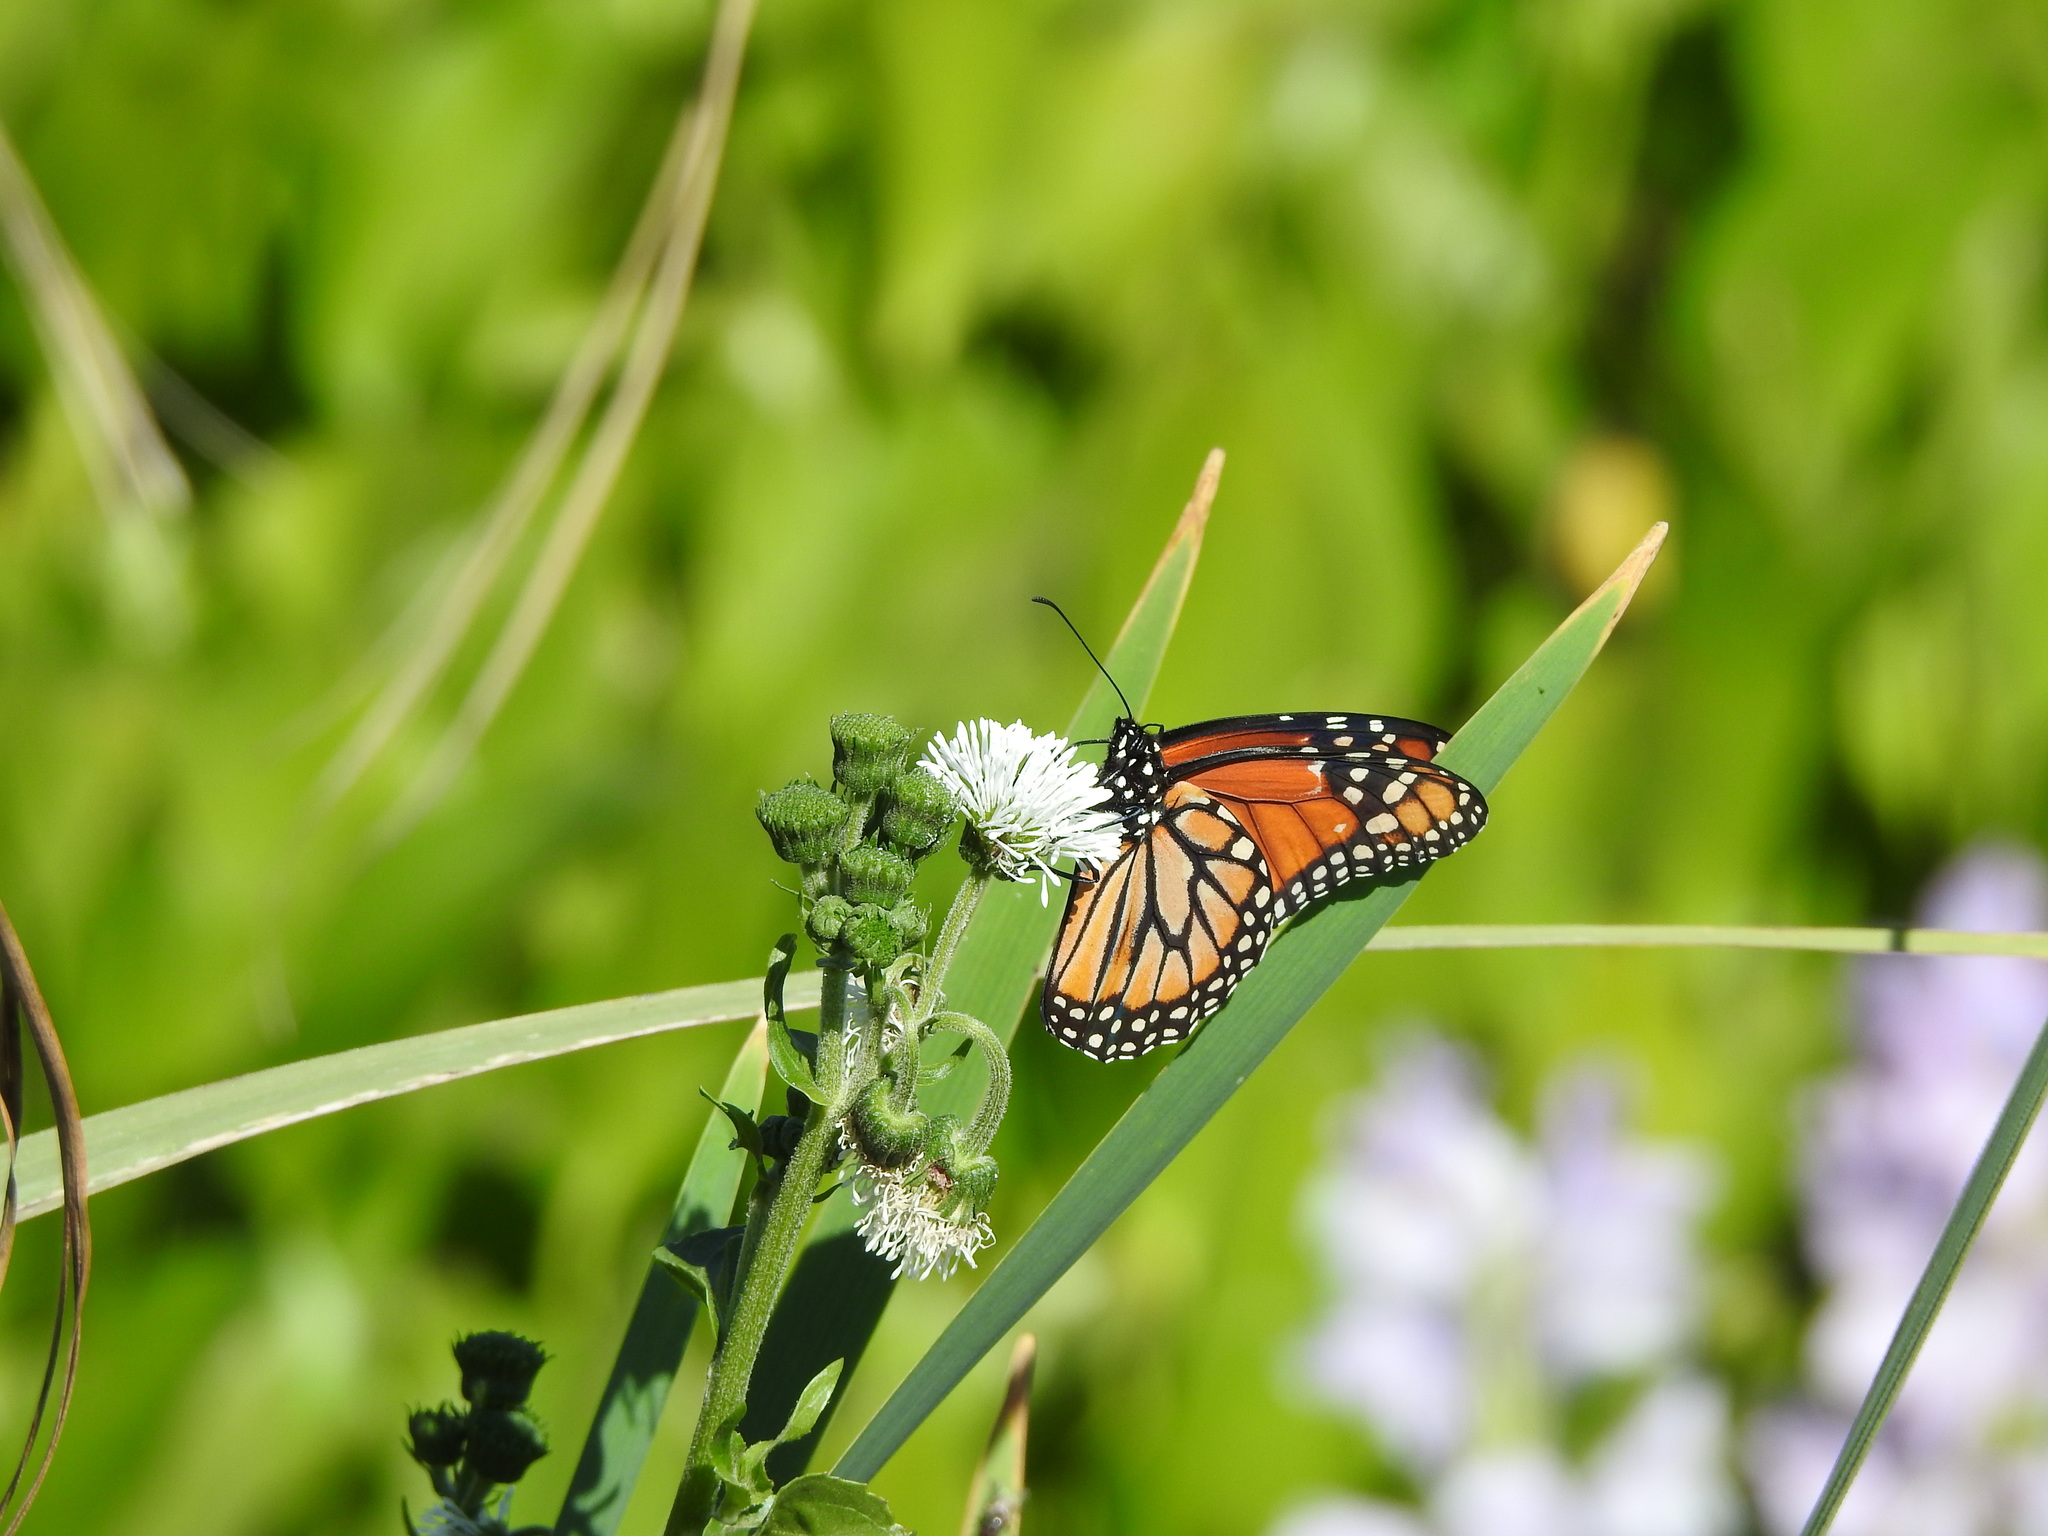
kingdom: Animalia
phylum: Arthropoda
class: Insecta
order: Lepidoptera
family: Nymphalidae
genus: Danaus
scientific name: Danaus erippus
